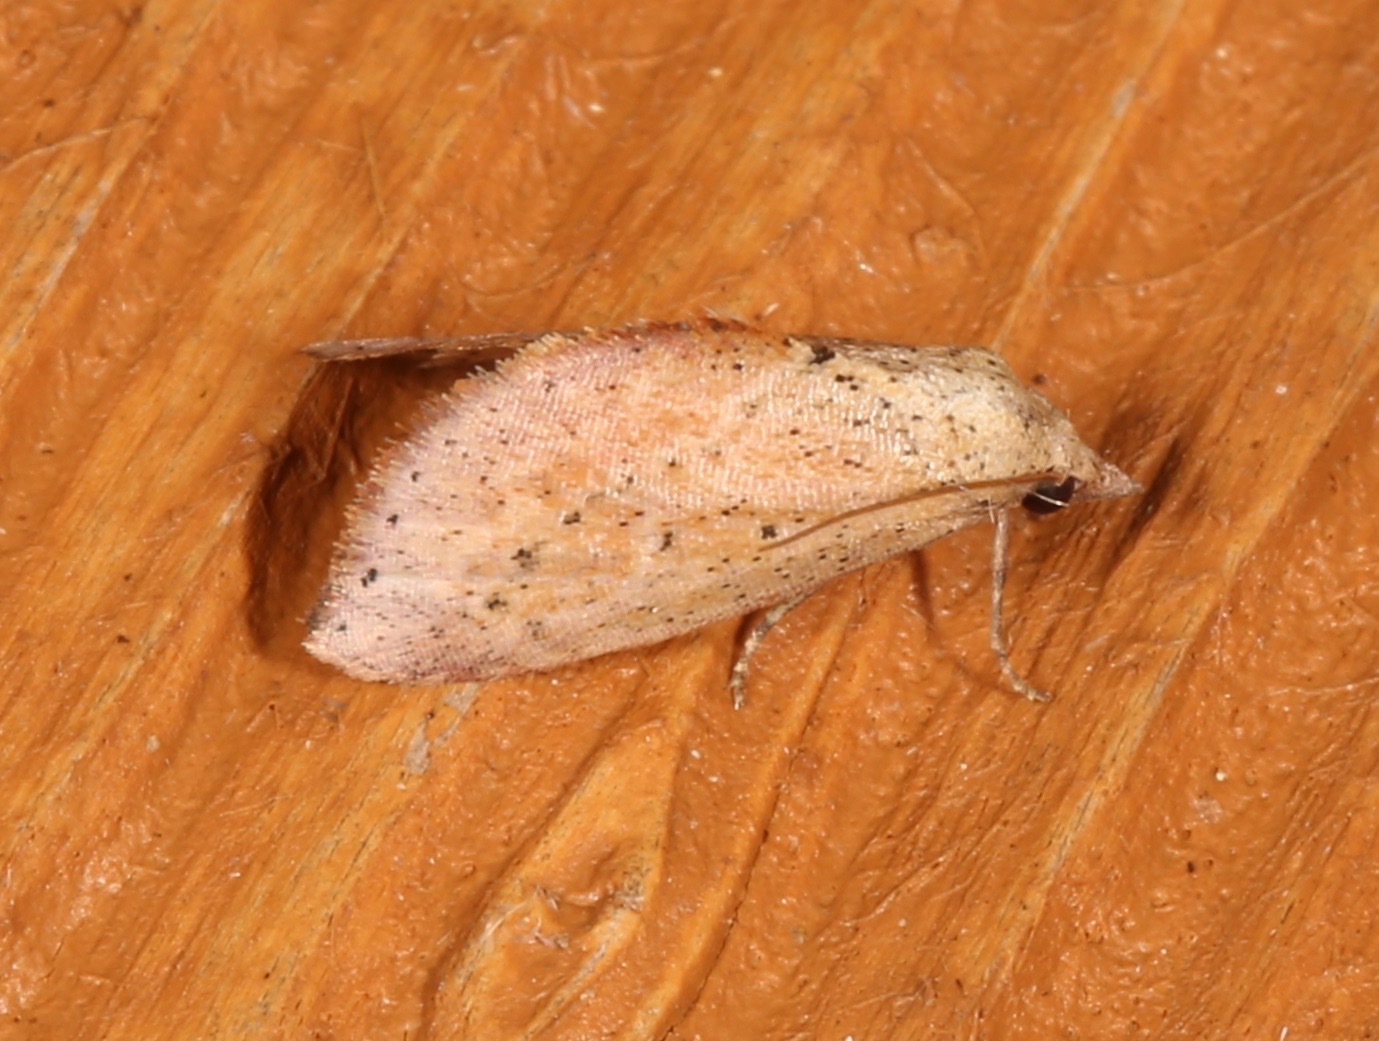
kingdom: Animalia
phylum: Arthropoda
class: Insecta
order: Lepidoptera
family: Noctuidae
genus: Proroblemma
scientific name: Proroblemma testa
